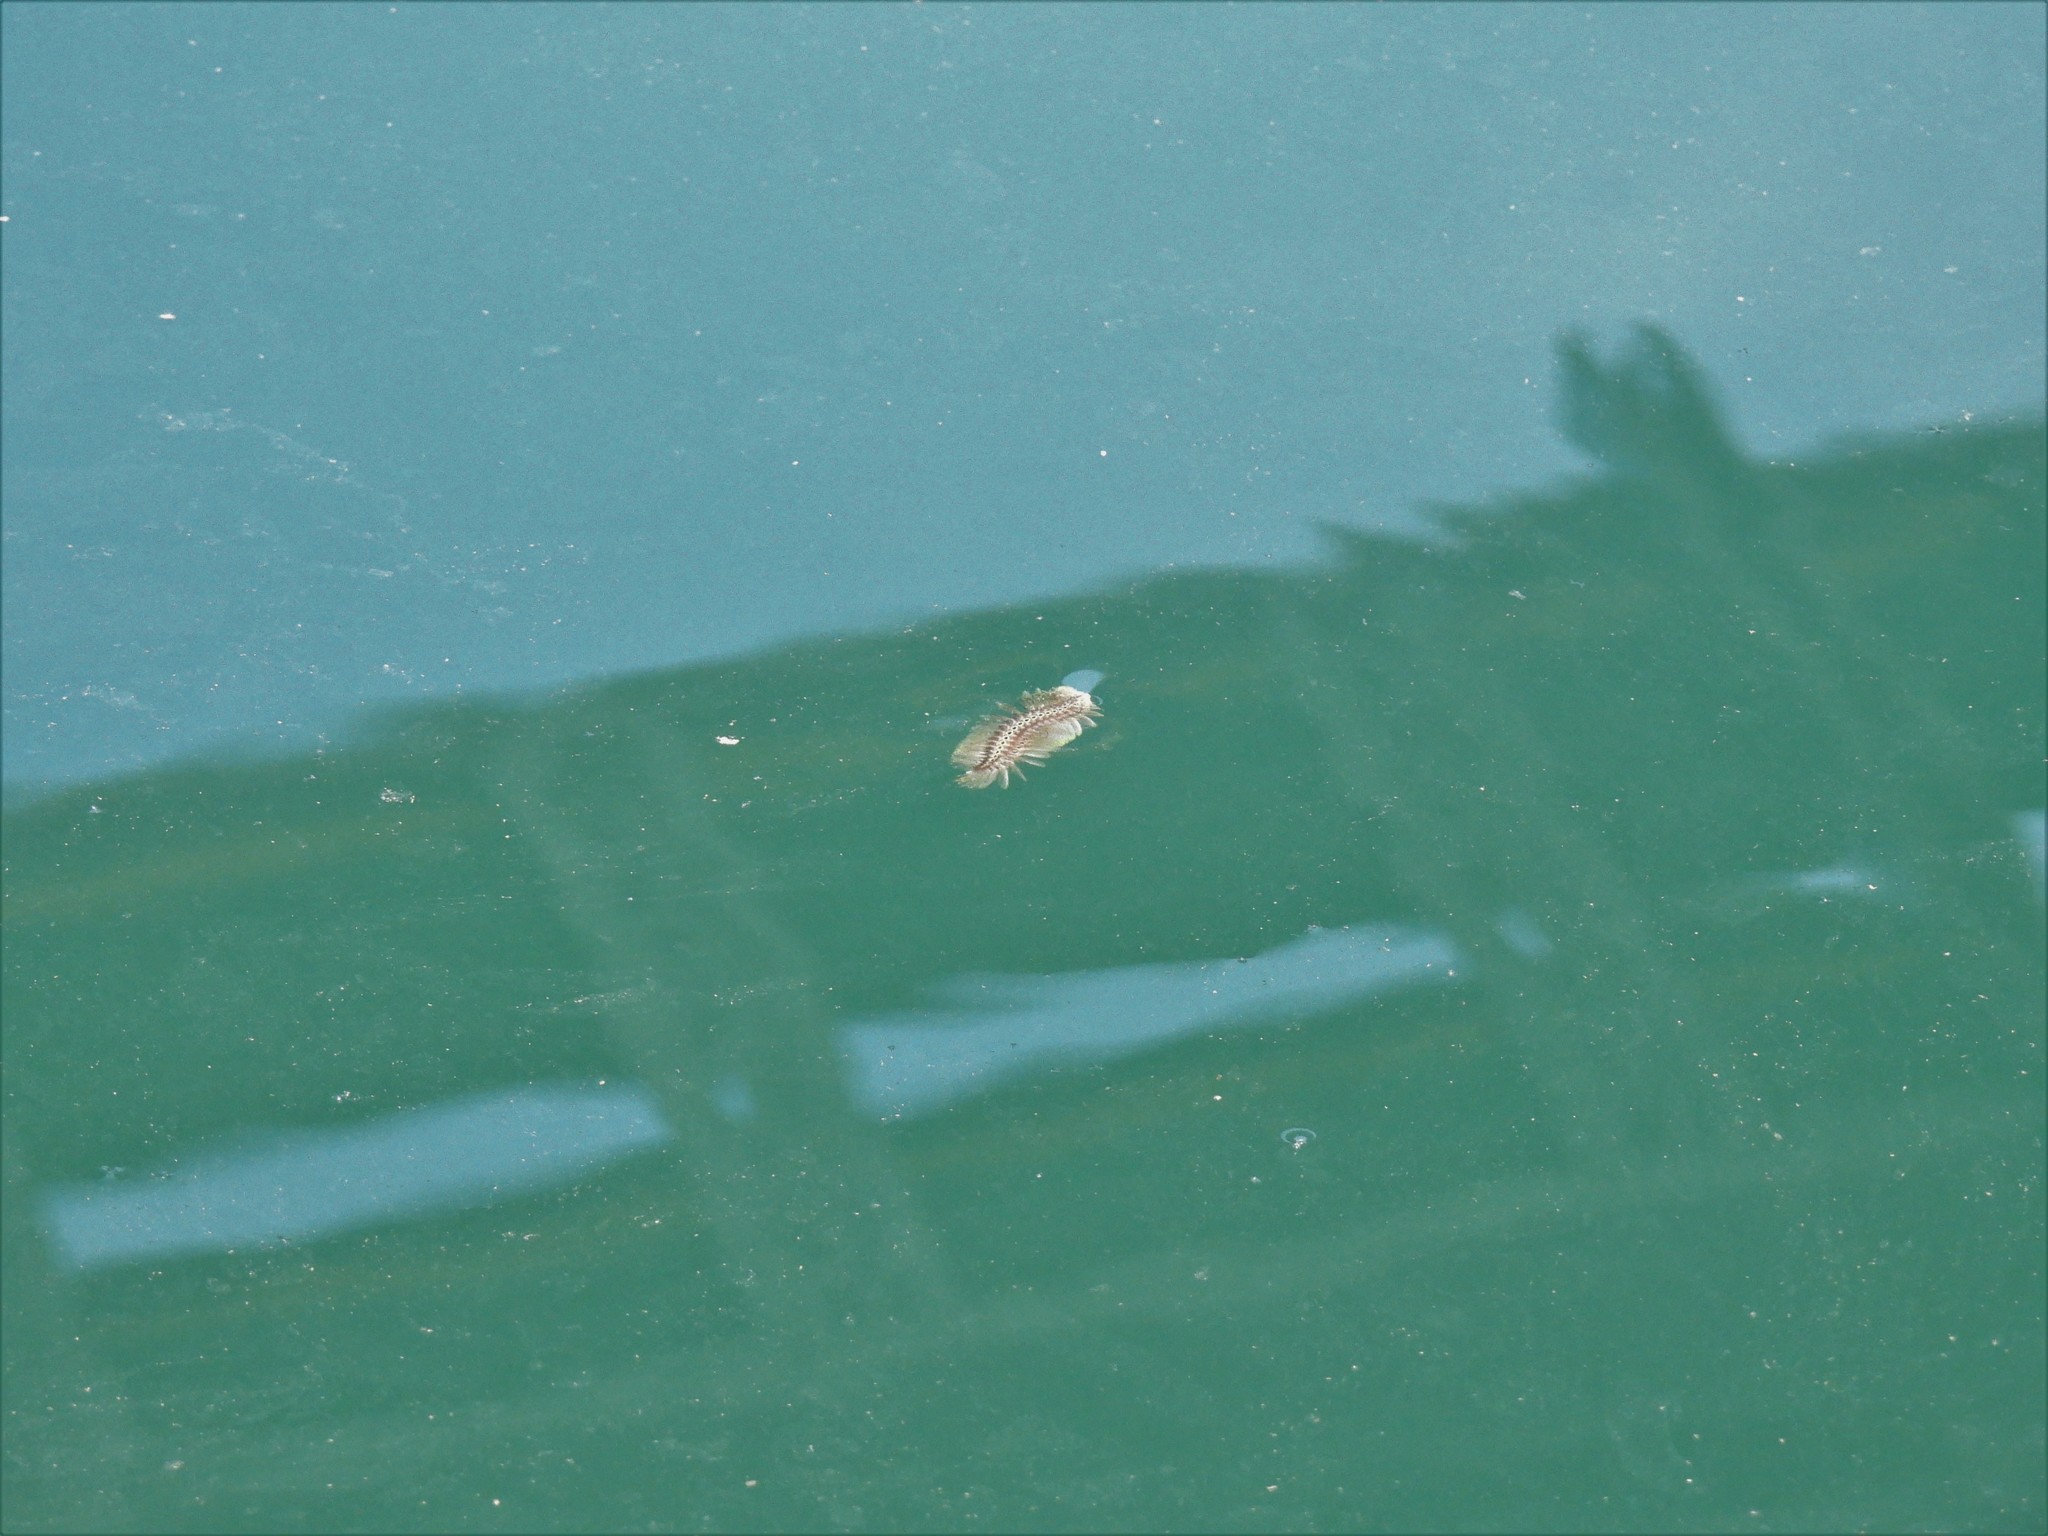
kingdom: Animalia
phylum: Annelida
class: Polychaeta
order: Amphinomida
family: Amphinomidae
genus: Chloeia
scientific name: Chloeia flava
